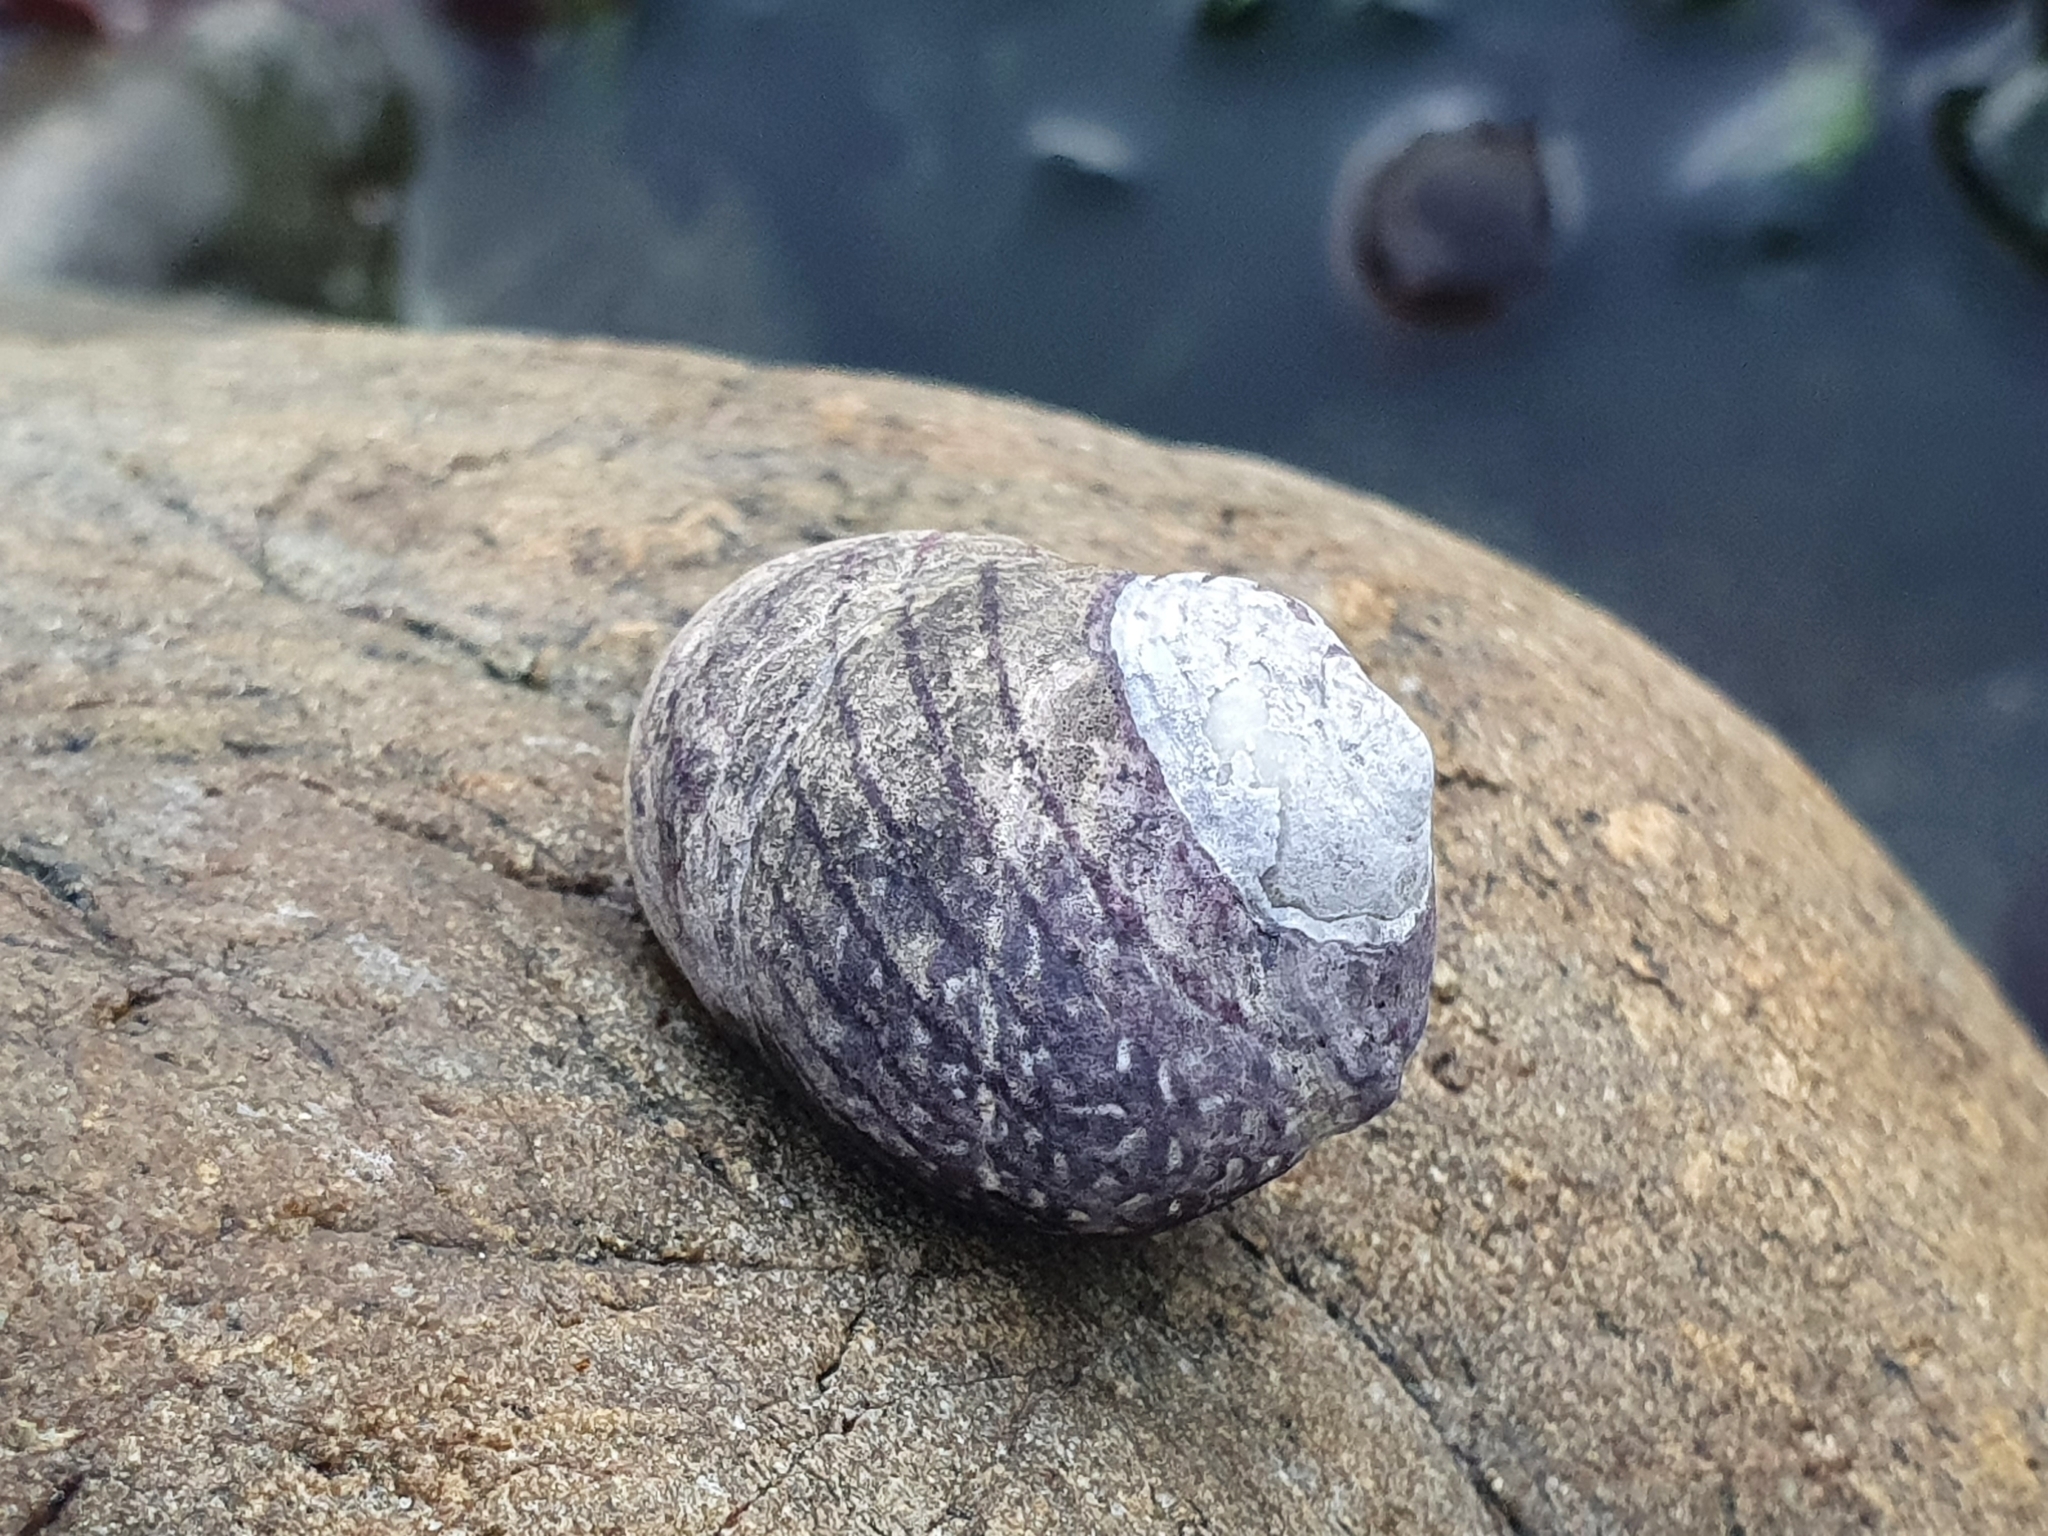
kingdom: Animalia
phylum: Mollusca
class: Gastropoda
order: Trochida
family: Trochidae
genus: Diloma
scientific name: Diloma aethiops
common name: Scorched monodont
